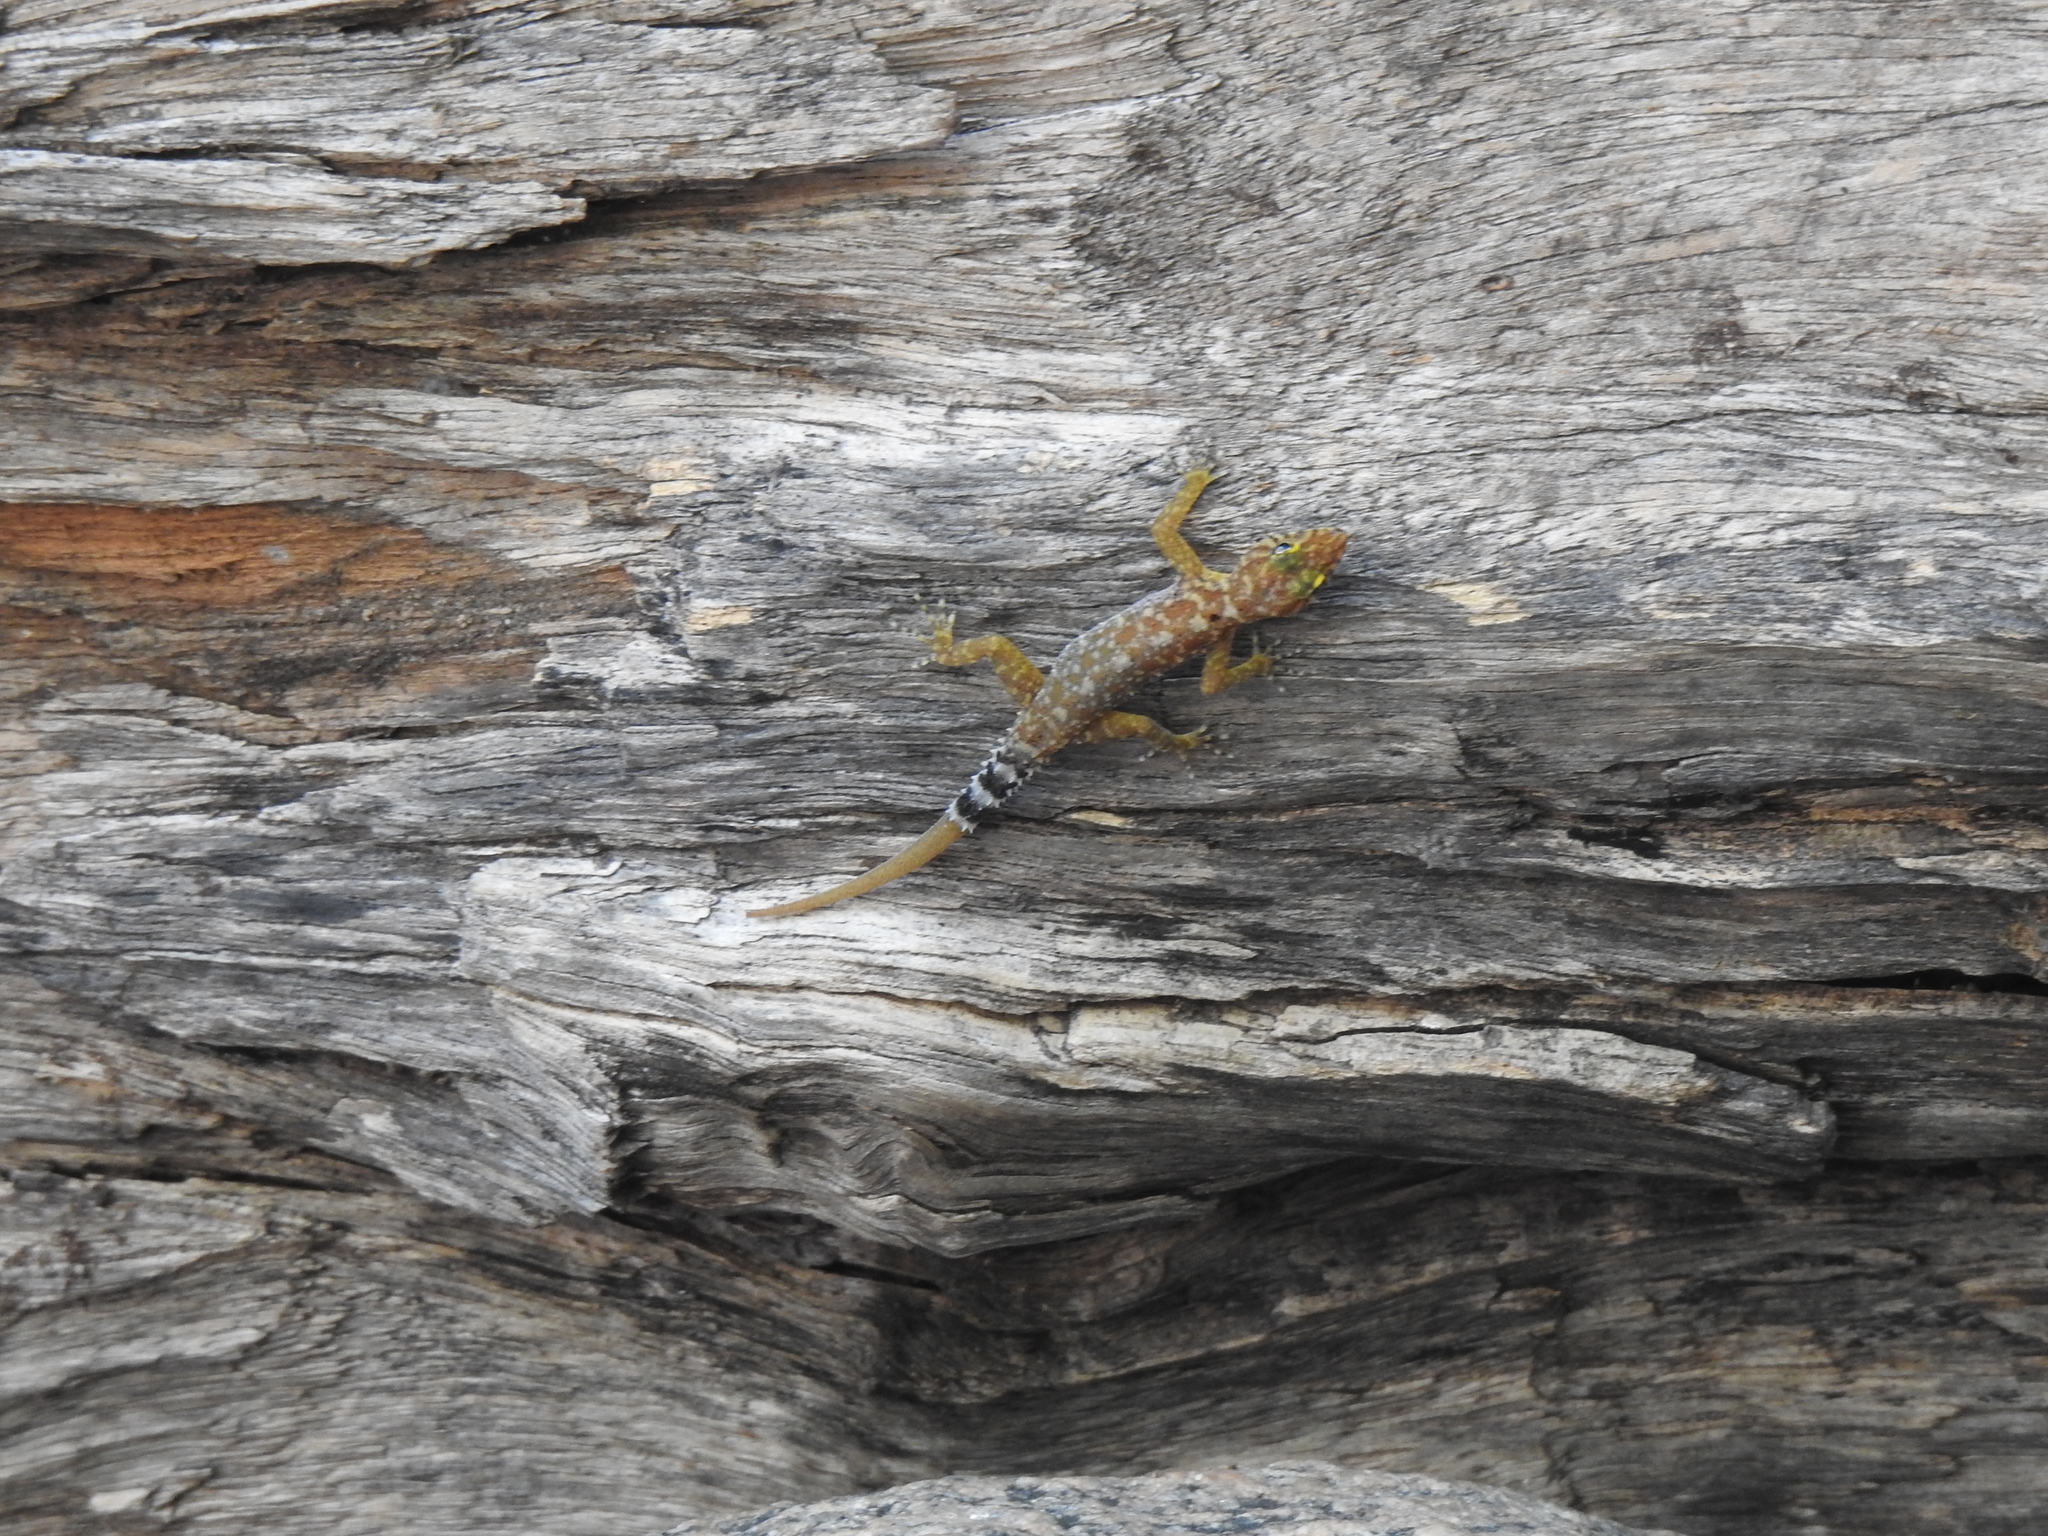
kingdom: Animalia
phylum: Chordata
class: Squamata
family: Gekkonidae
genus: Cnemaspis
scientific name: Cnemaspis gracilis
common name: Graceful day gecko
